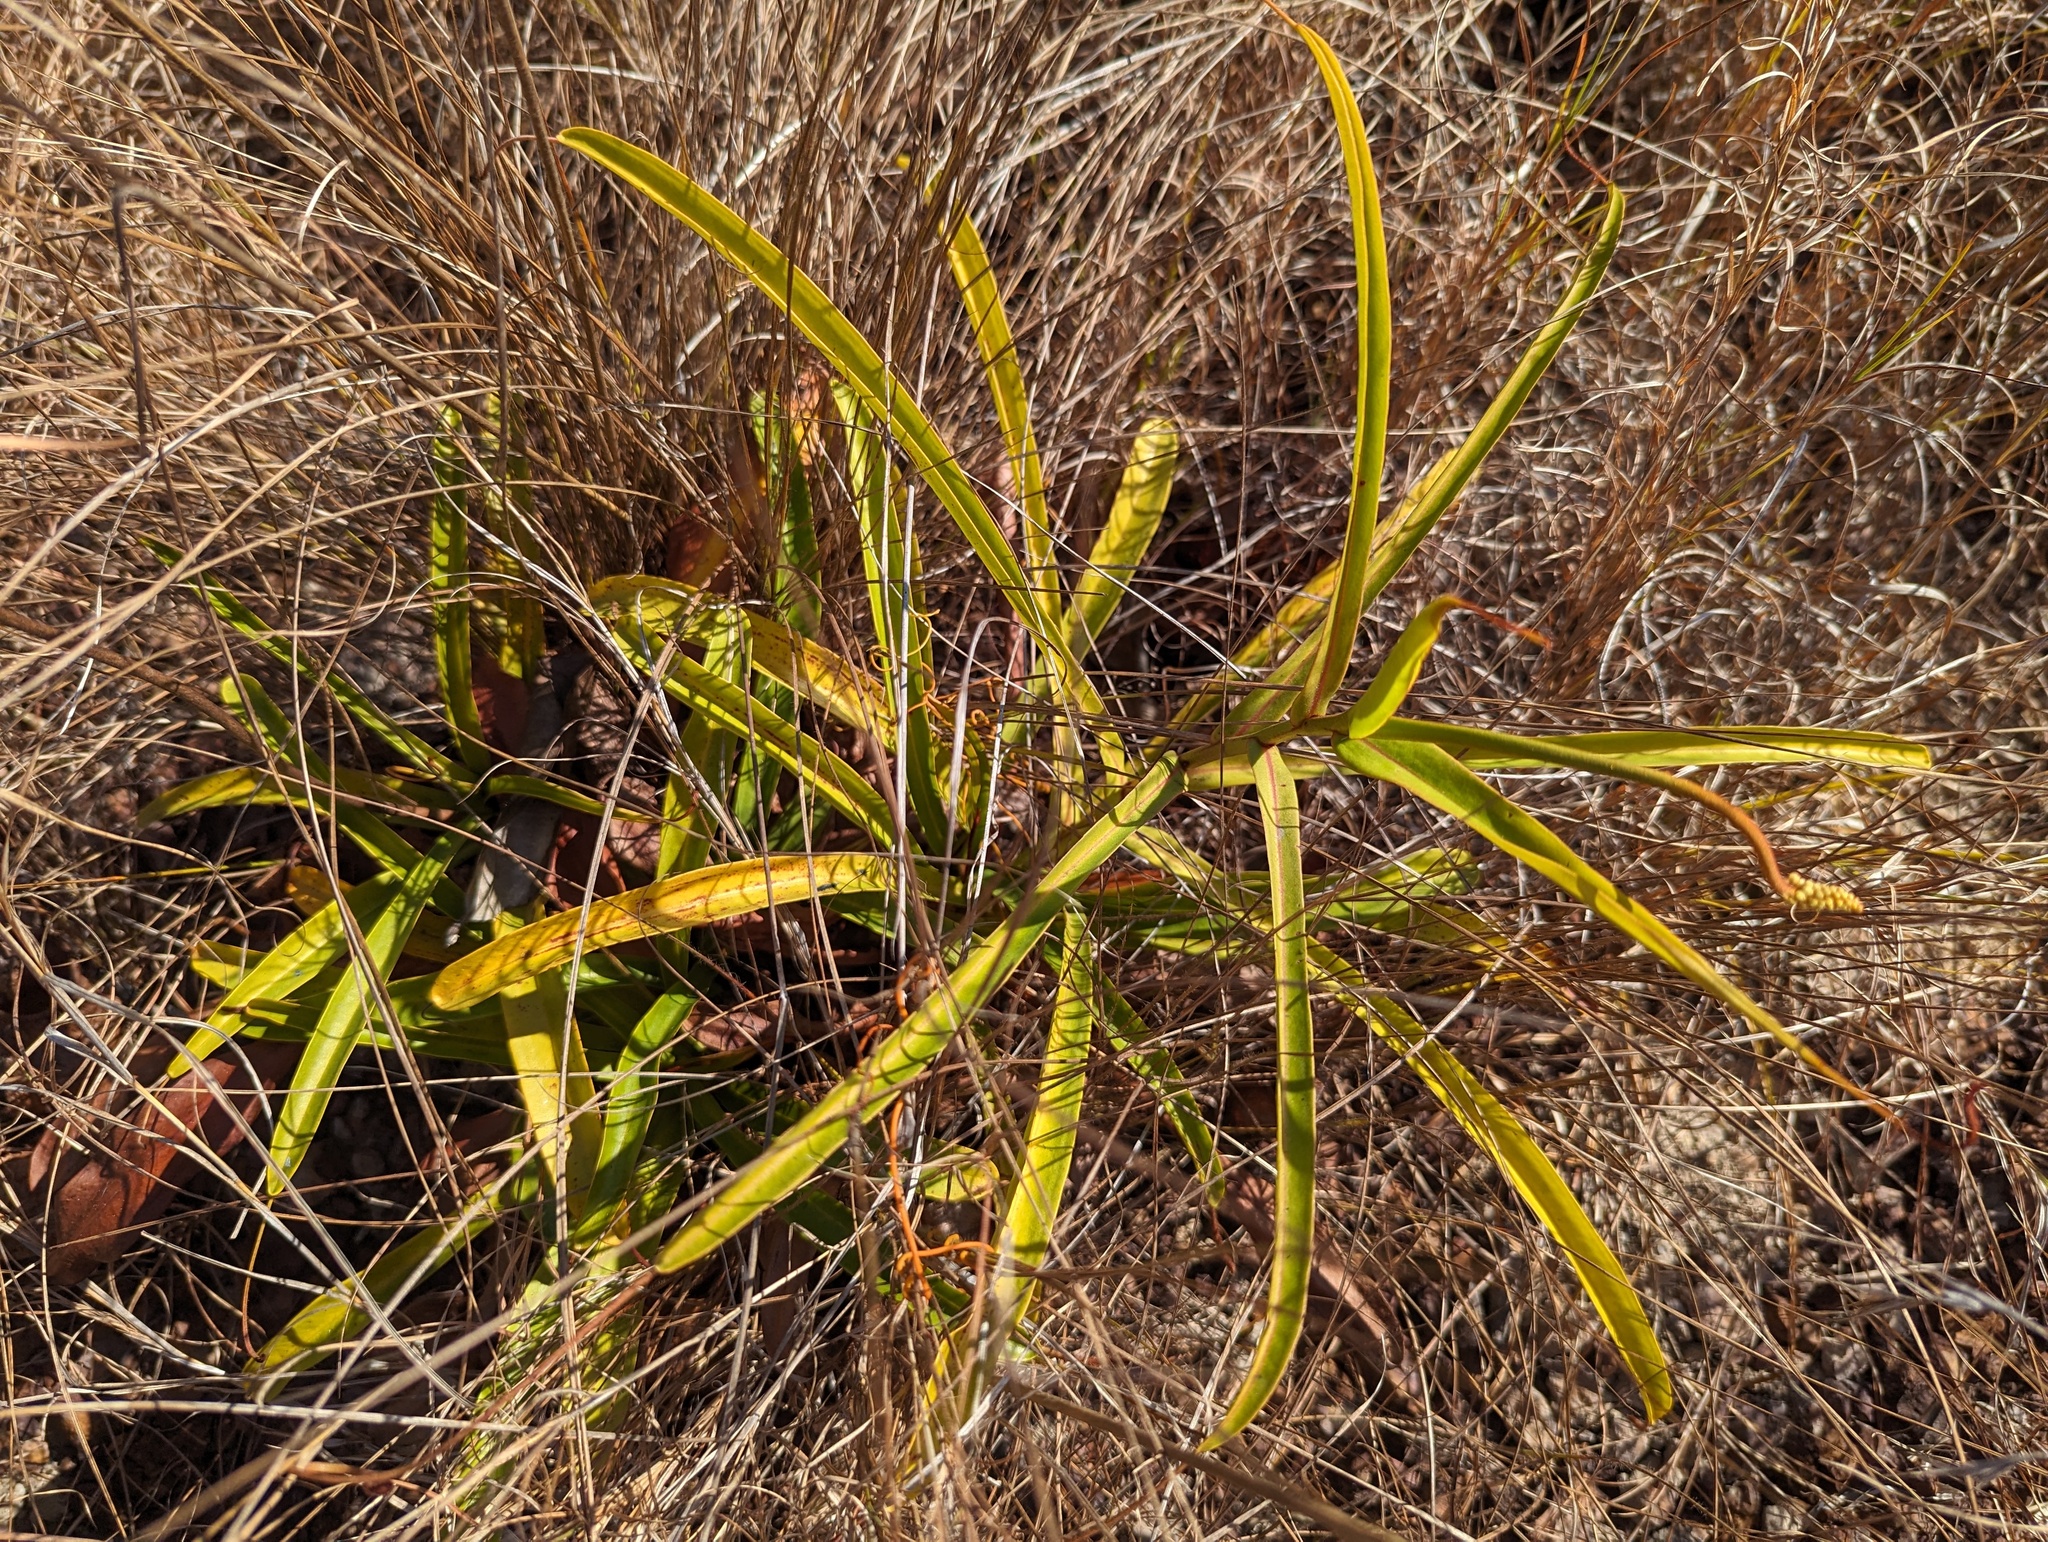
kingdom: Plantae
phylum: Tracheophyta
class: Magnoliopsida
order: Caryophyllales
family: Nepenthaceae
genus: Nepenthes
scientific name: Nepenthes abalata
